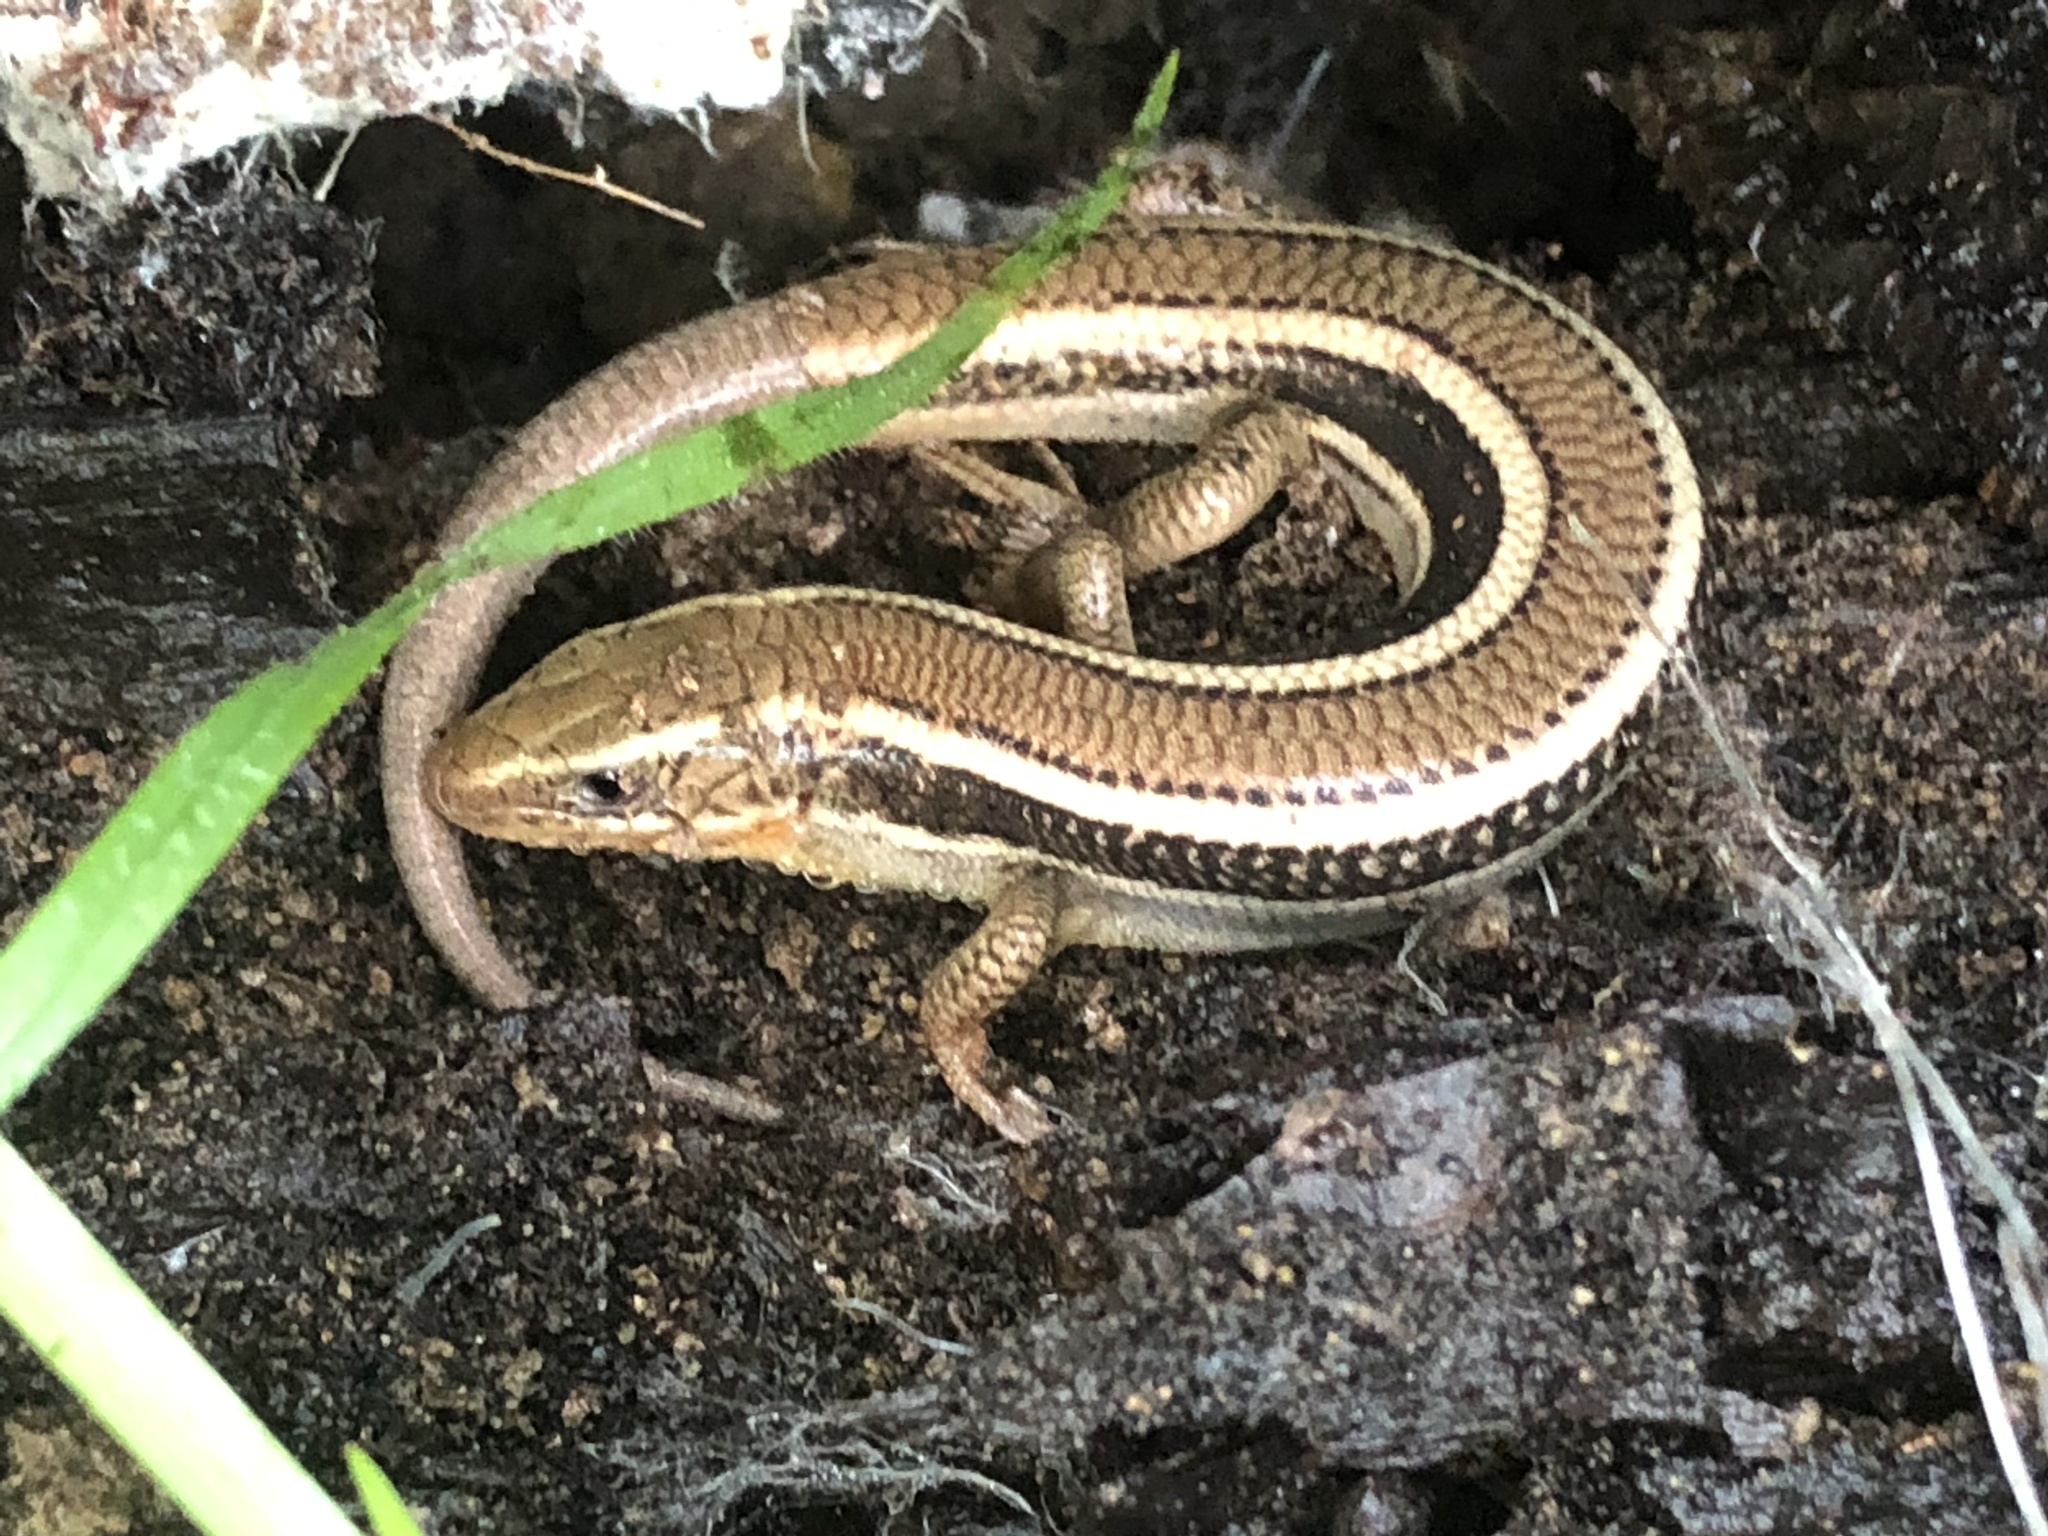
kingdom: Animalia
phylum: Chordata
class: Squamata
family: Scincidae
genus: Plestiodon
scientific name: Plestiodon skiltonianus
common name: Coronado island skink [interparietalis]
